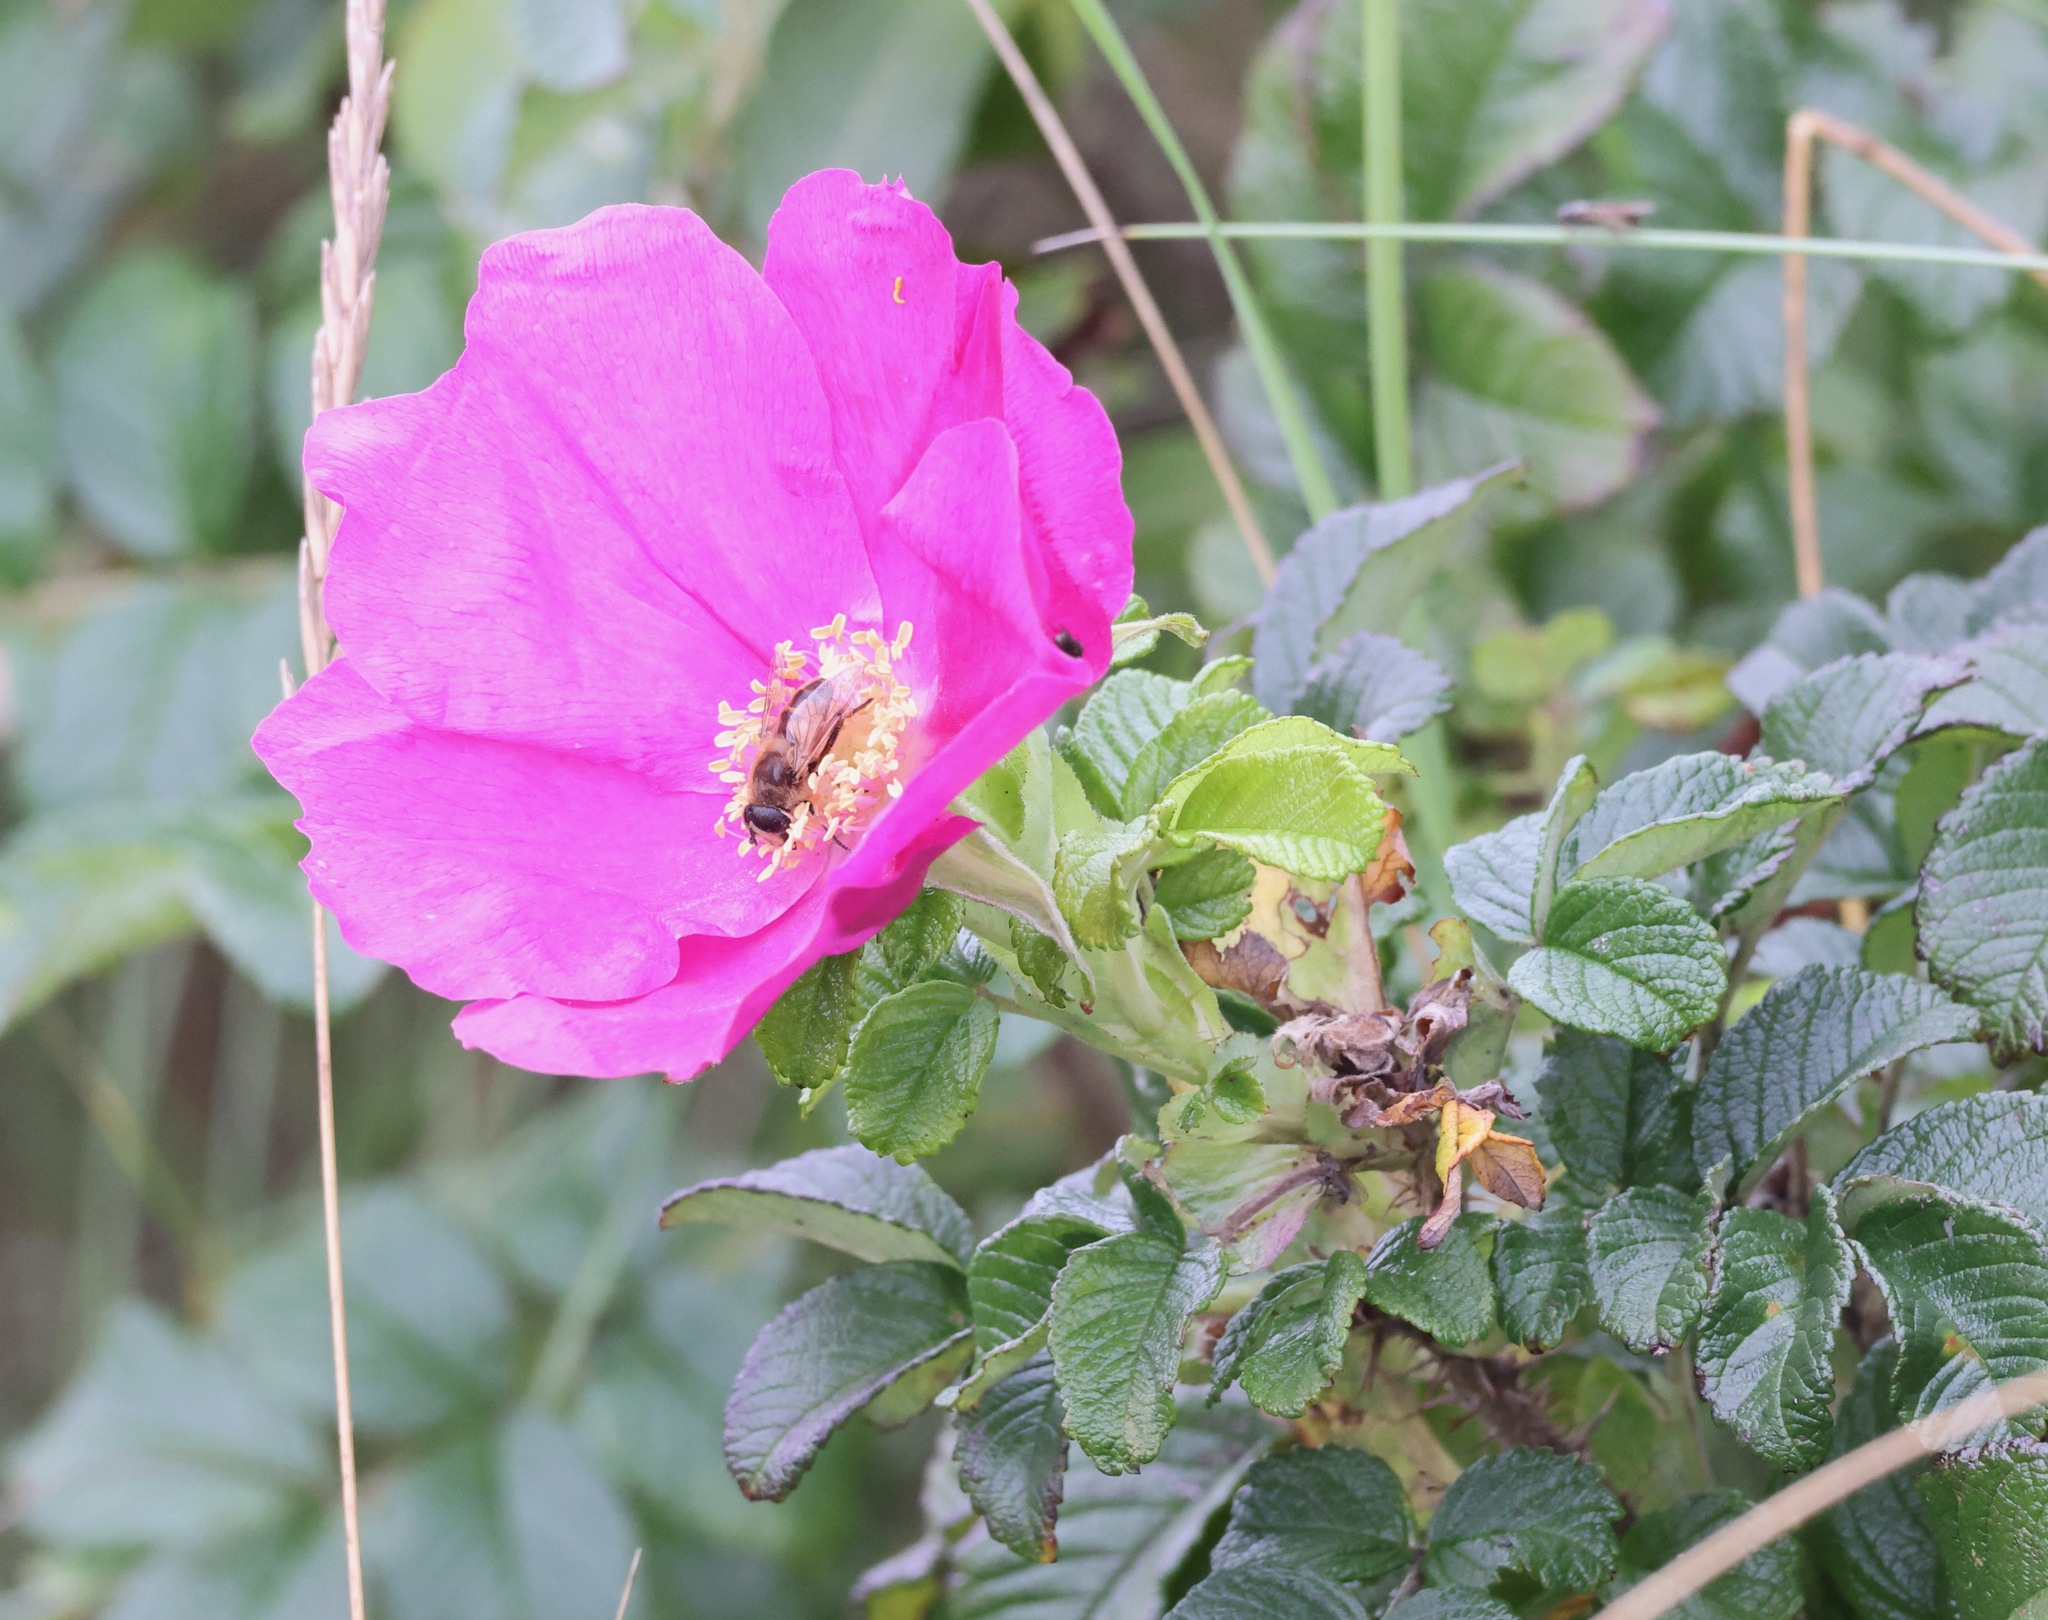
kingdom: Plantae
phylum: Tracheophyta
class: Magnoliopsida
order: Rosales
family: Rosaceae
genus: Rosa
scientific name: Rosa rugosa
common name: Japanese rose
